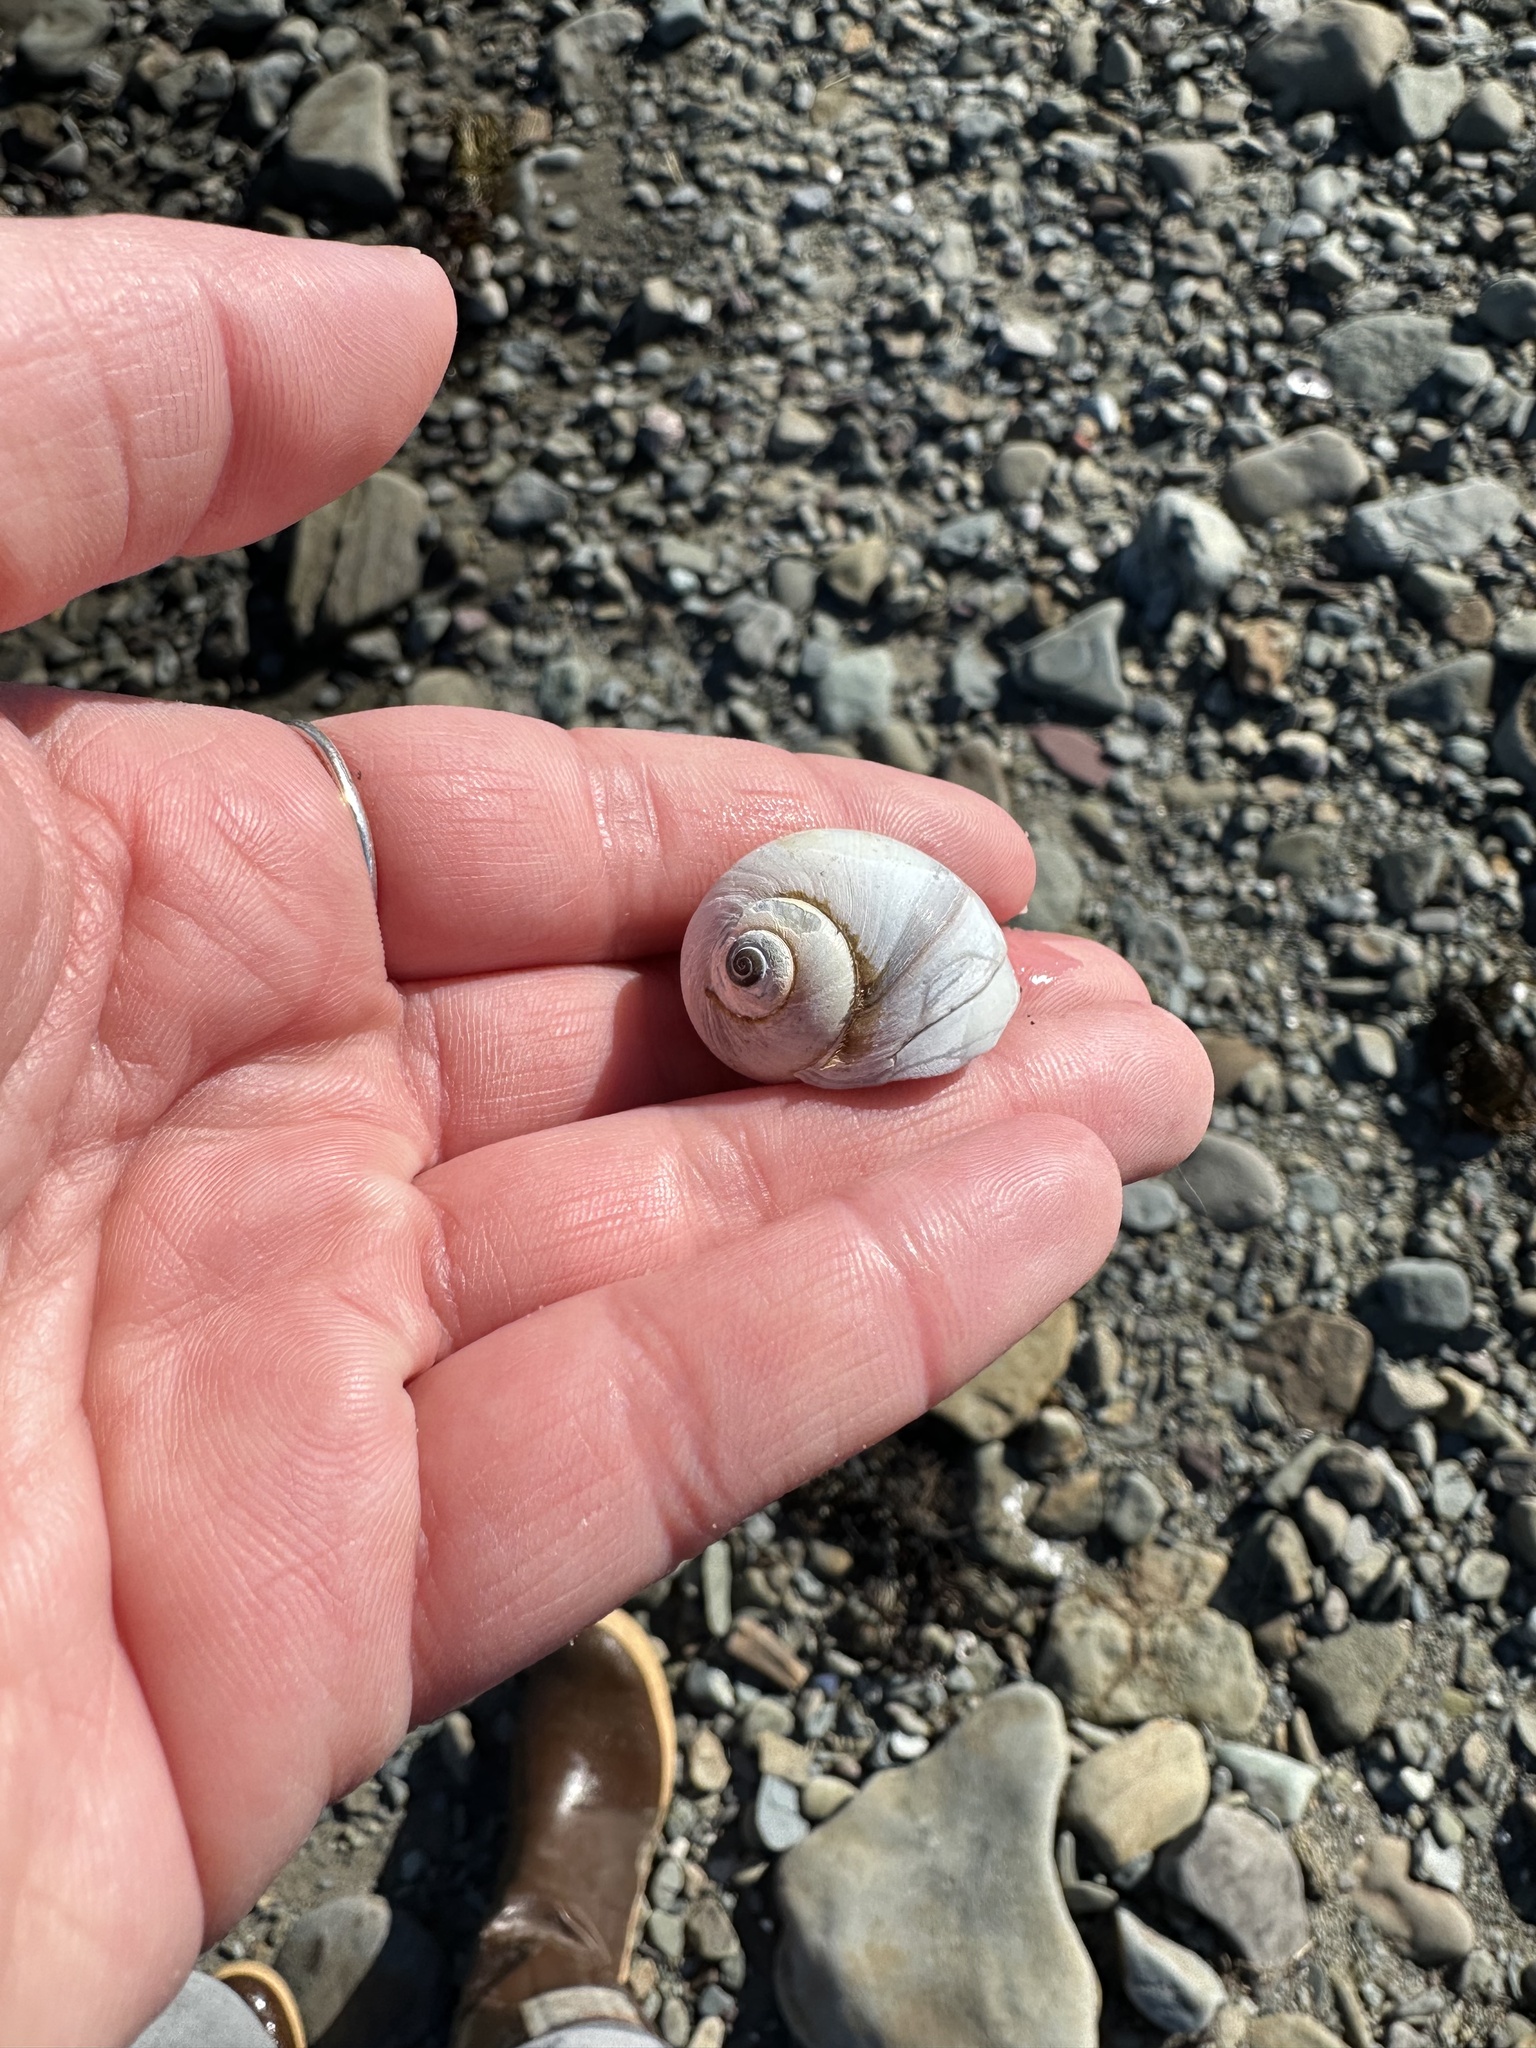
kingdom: Animalia
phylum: Mollusca
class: Gastropoda
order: Littorinimorpha
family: Naticidae
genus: Euspira
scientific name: Euspira heros
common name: Common northern moonsnail
